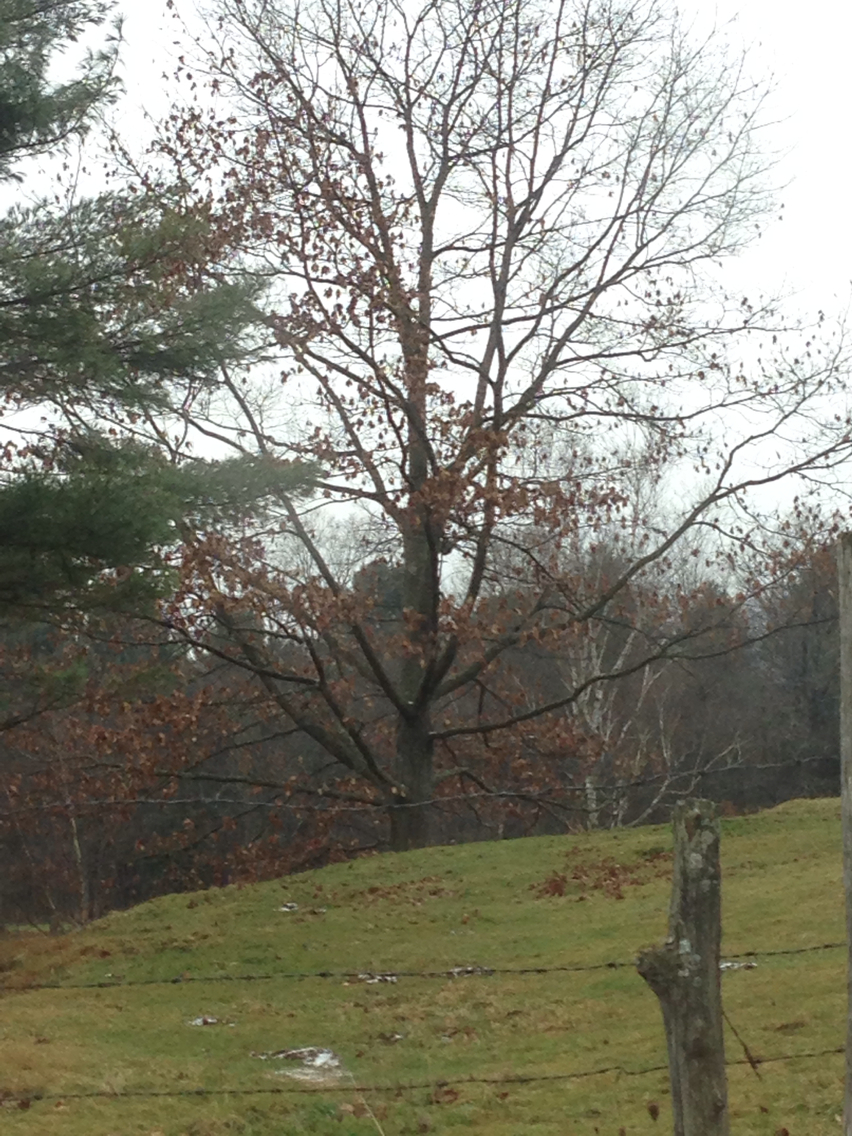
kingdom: Plantae
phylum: Tracheophyta
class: Magnoliopsida
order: Fagales
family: Fagaceae
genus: Quercus
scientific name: Quercus rubra
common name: Red oak
